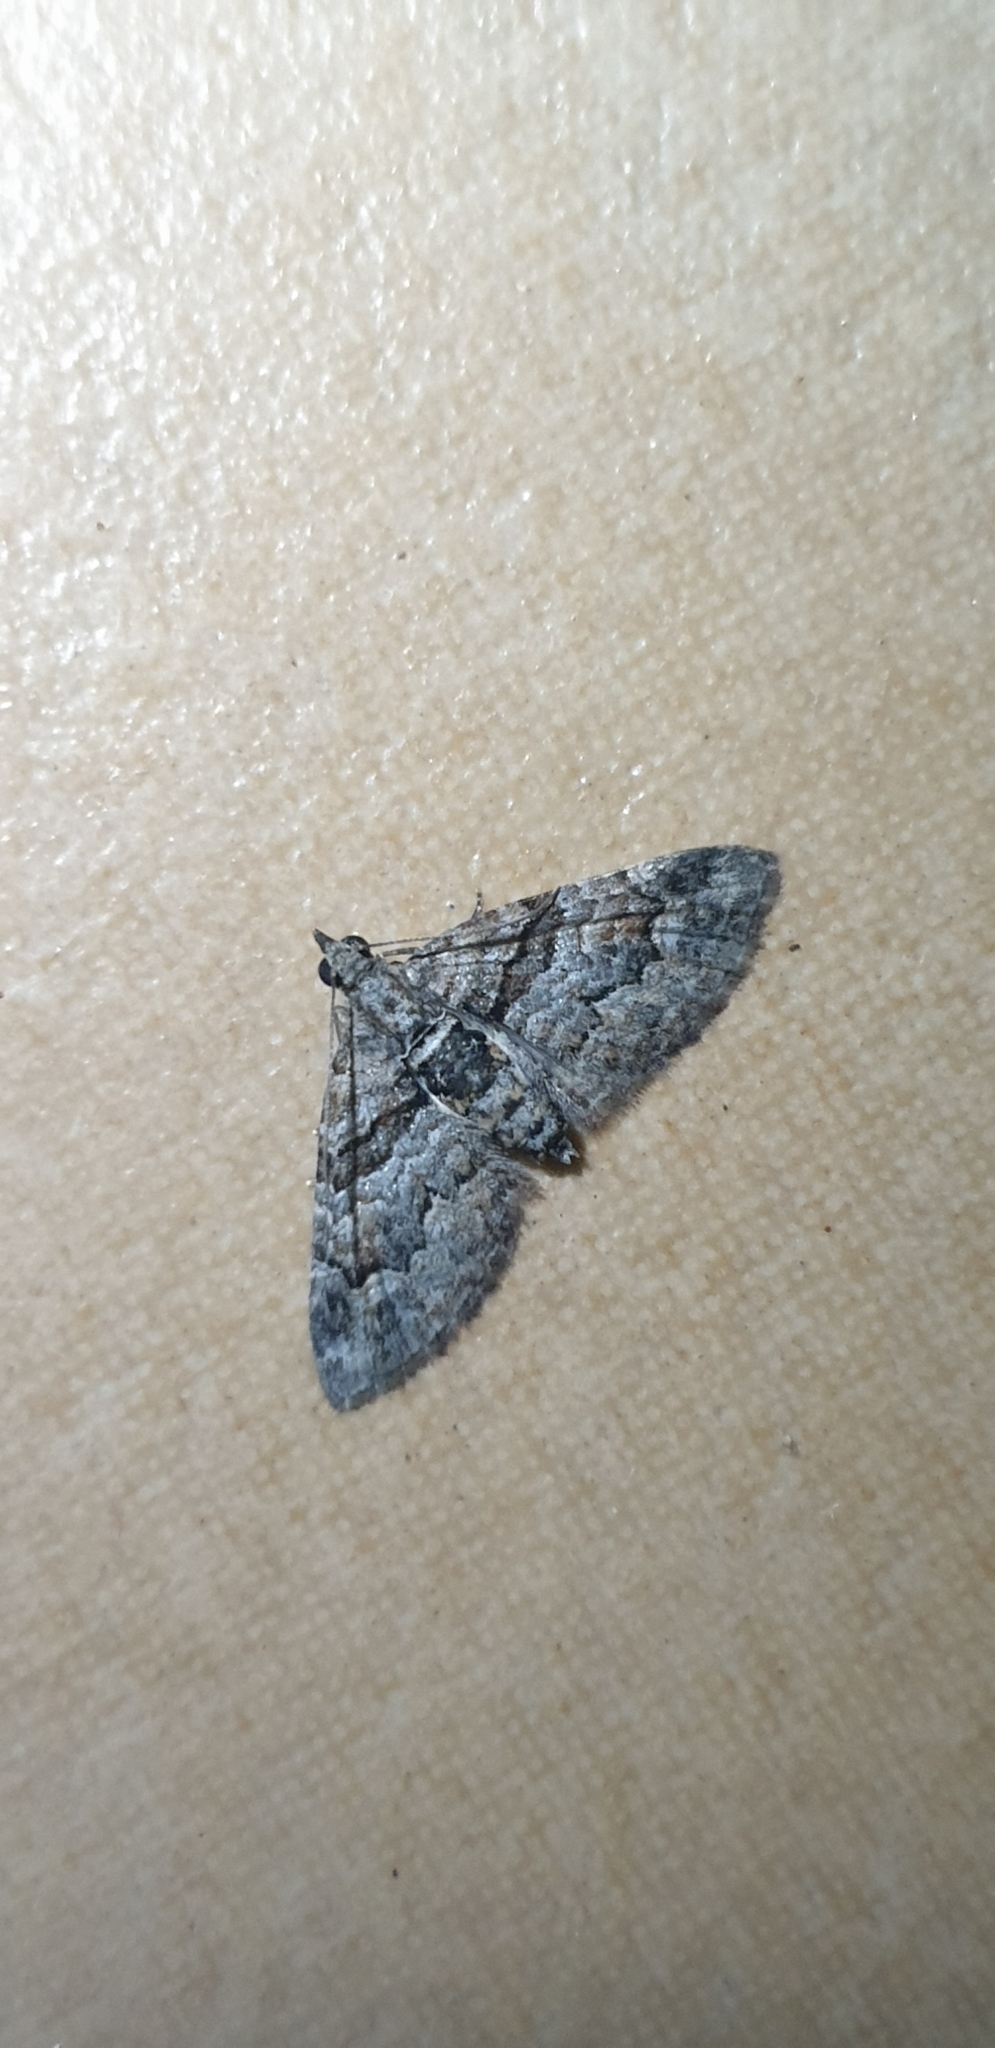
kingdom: Animalia
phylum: Arthropoda
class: Insecta
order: Lepidoptera
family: Geometridae
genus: Phrissogonus
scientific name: Phrissogonus laticostata
